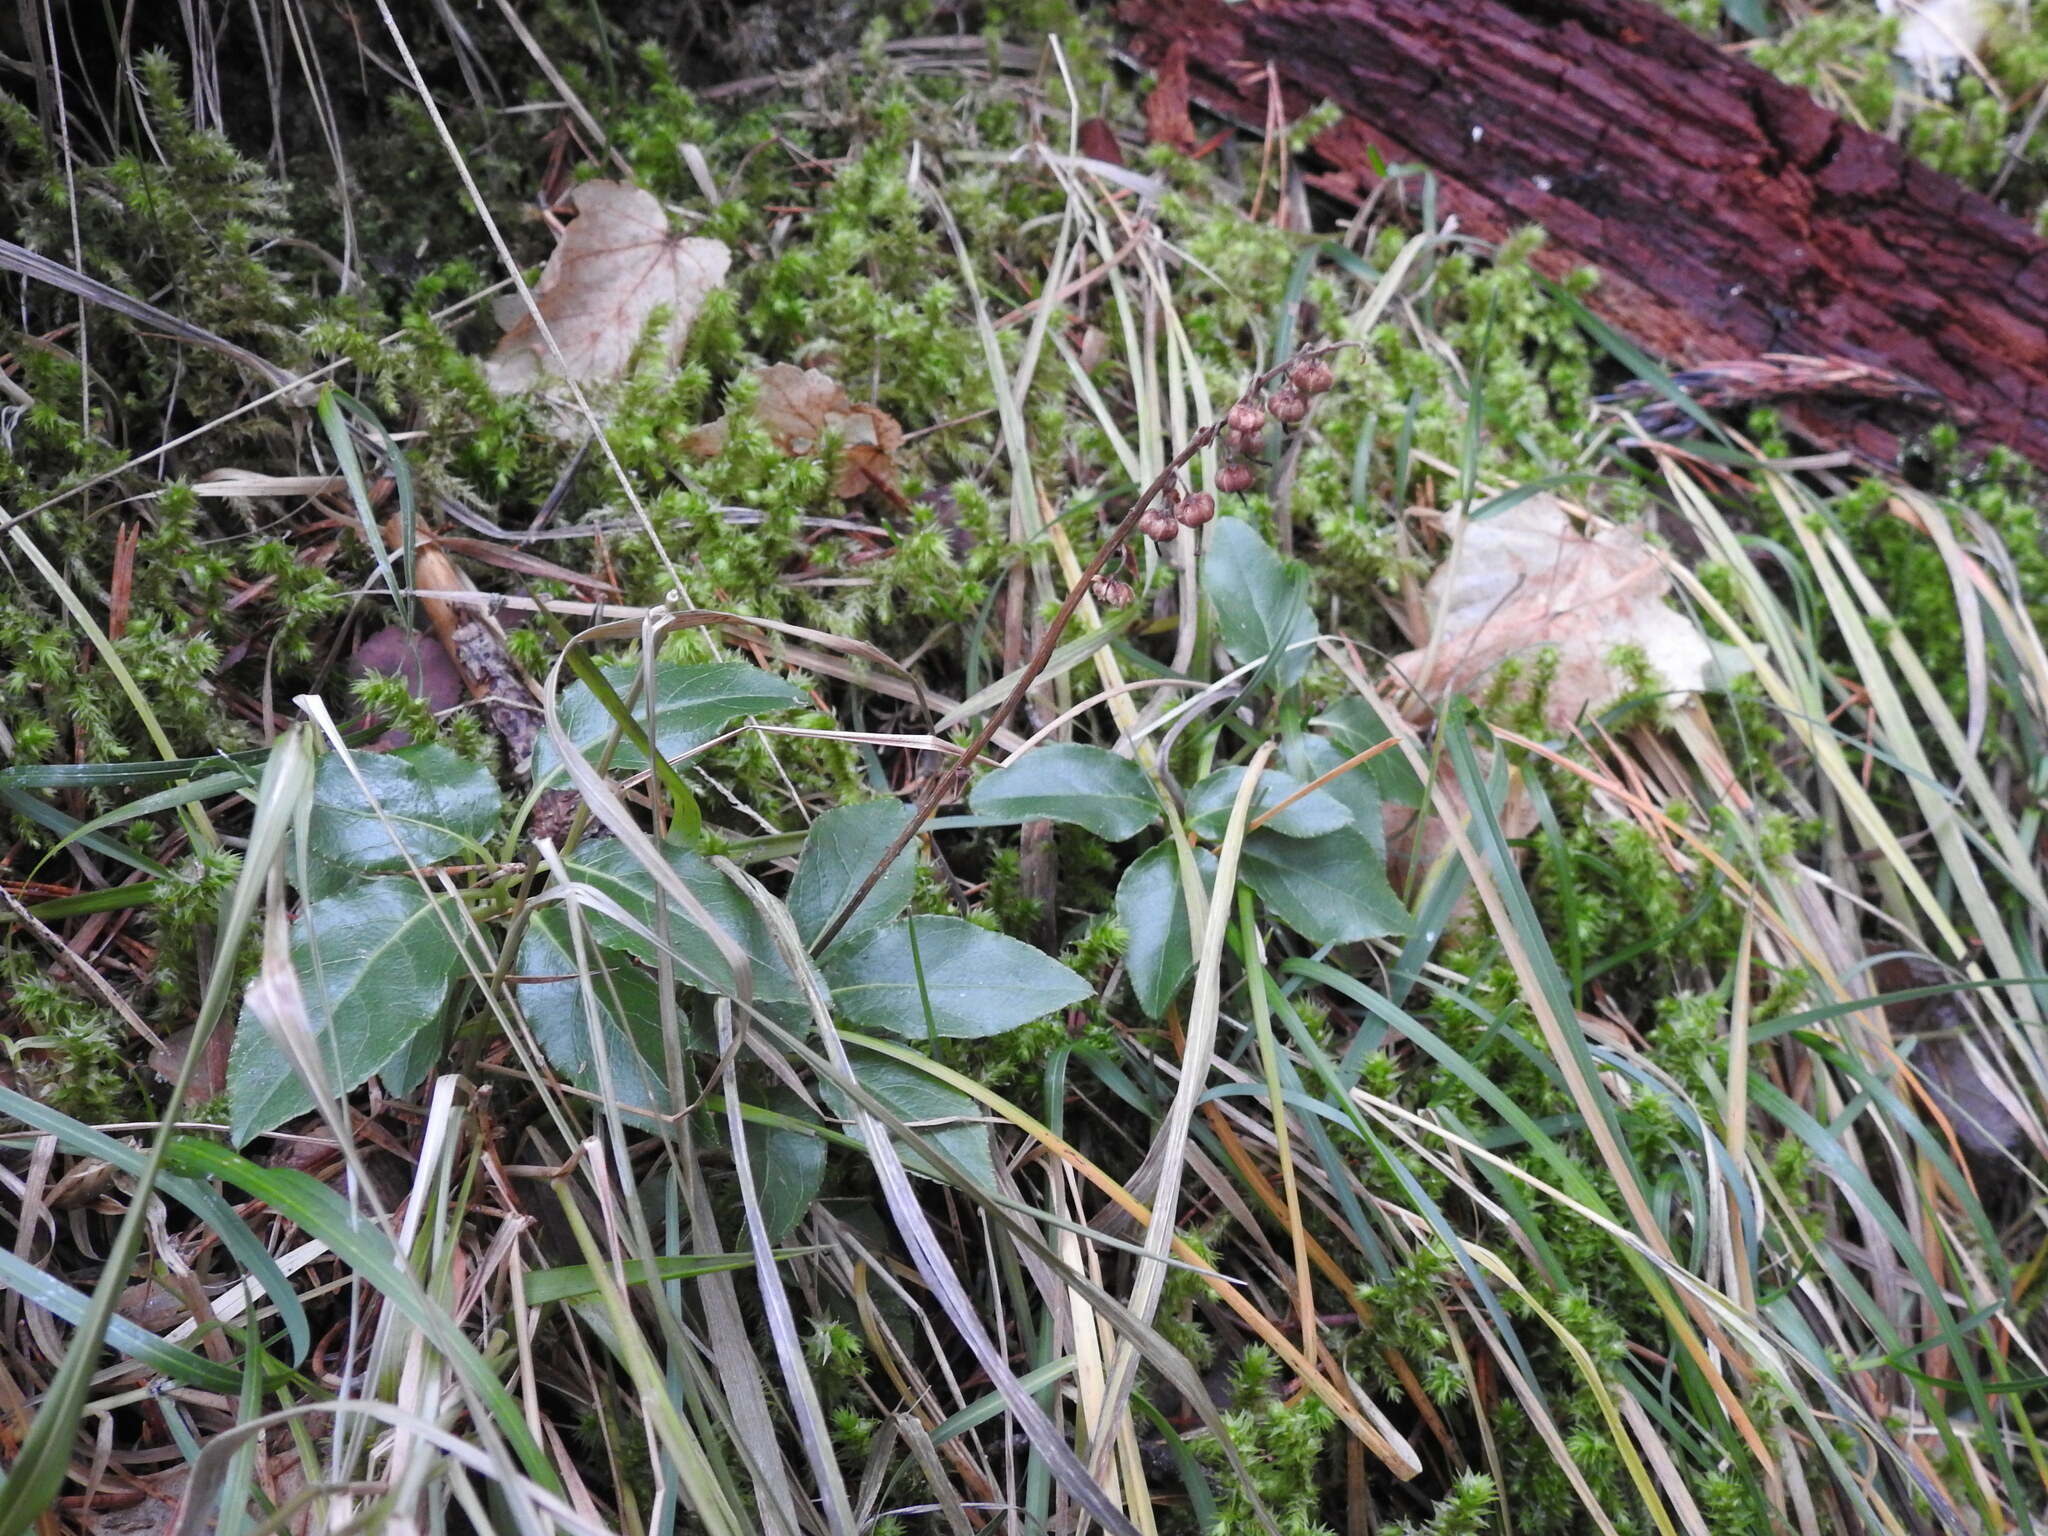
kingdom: Plantae
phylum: Tracheophyta
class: Magnoliopsida
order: Ericales
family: Ericaceae
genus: Orthilia
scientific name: Orthilia secunda
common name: One-sided orthilia
